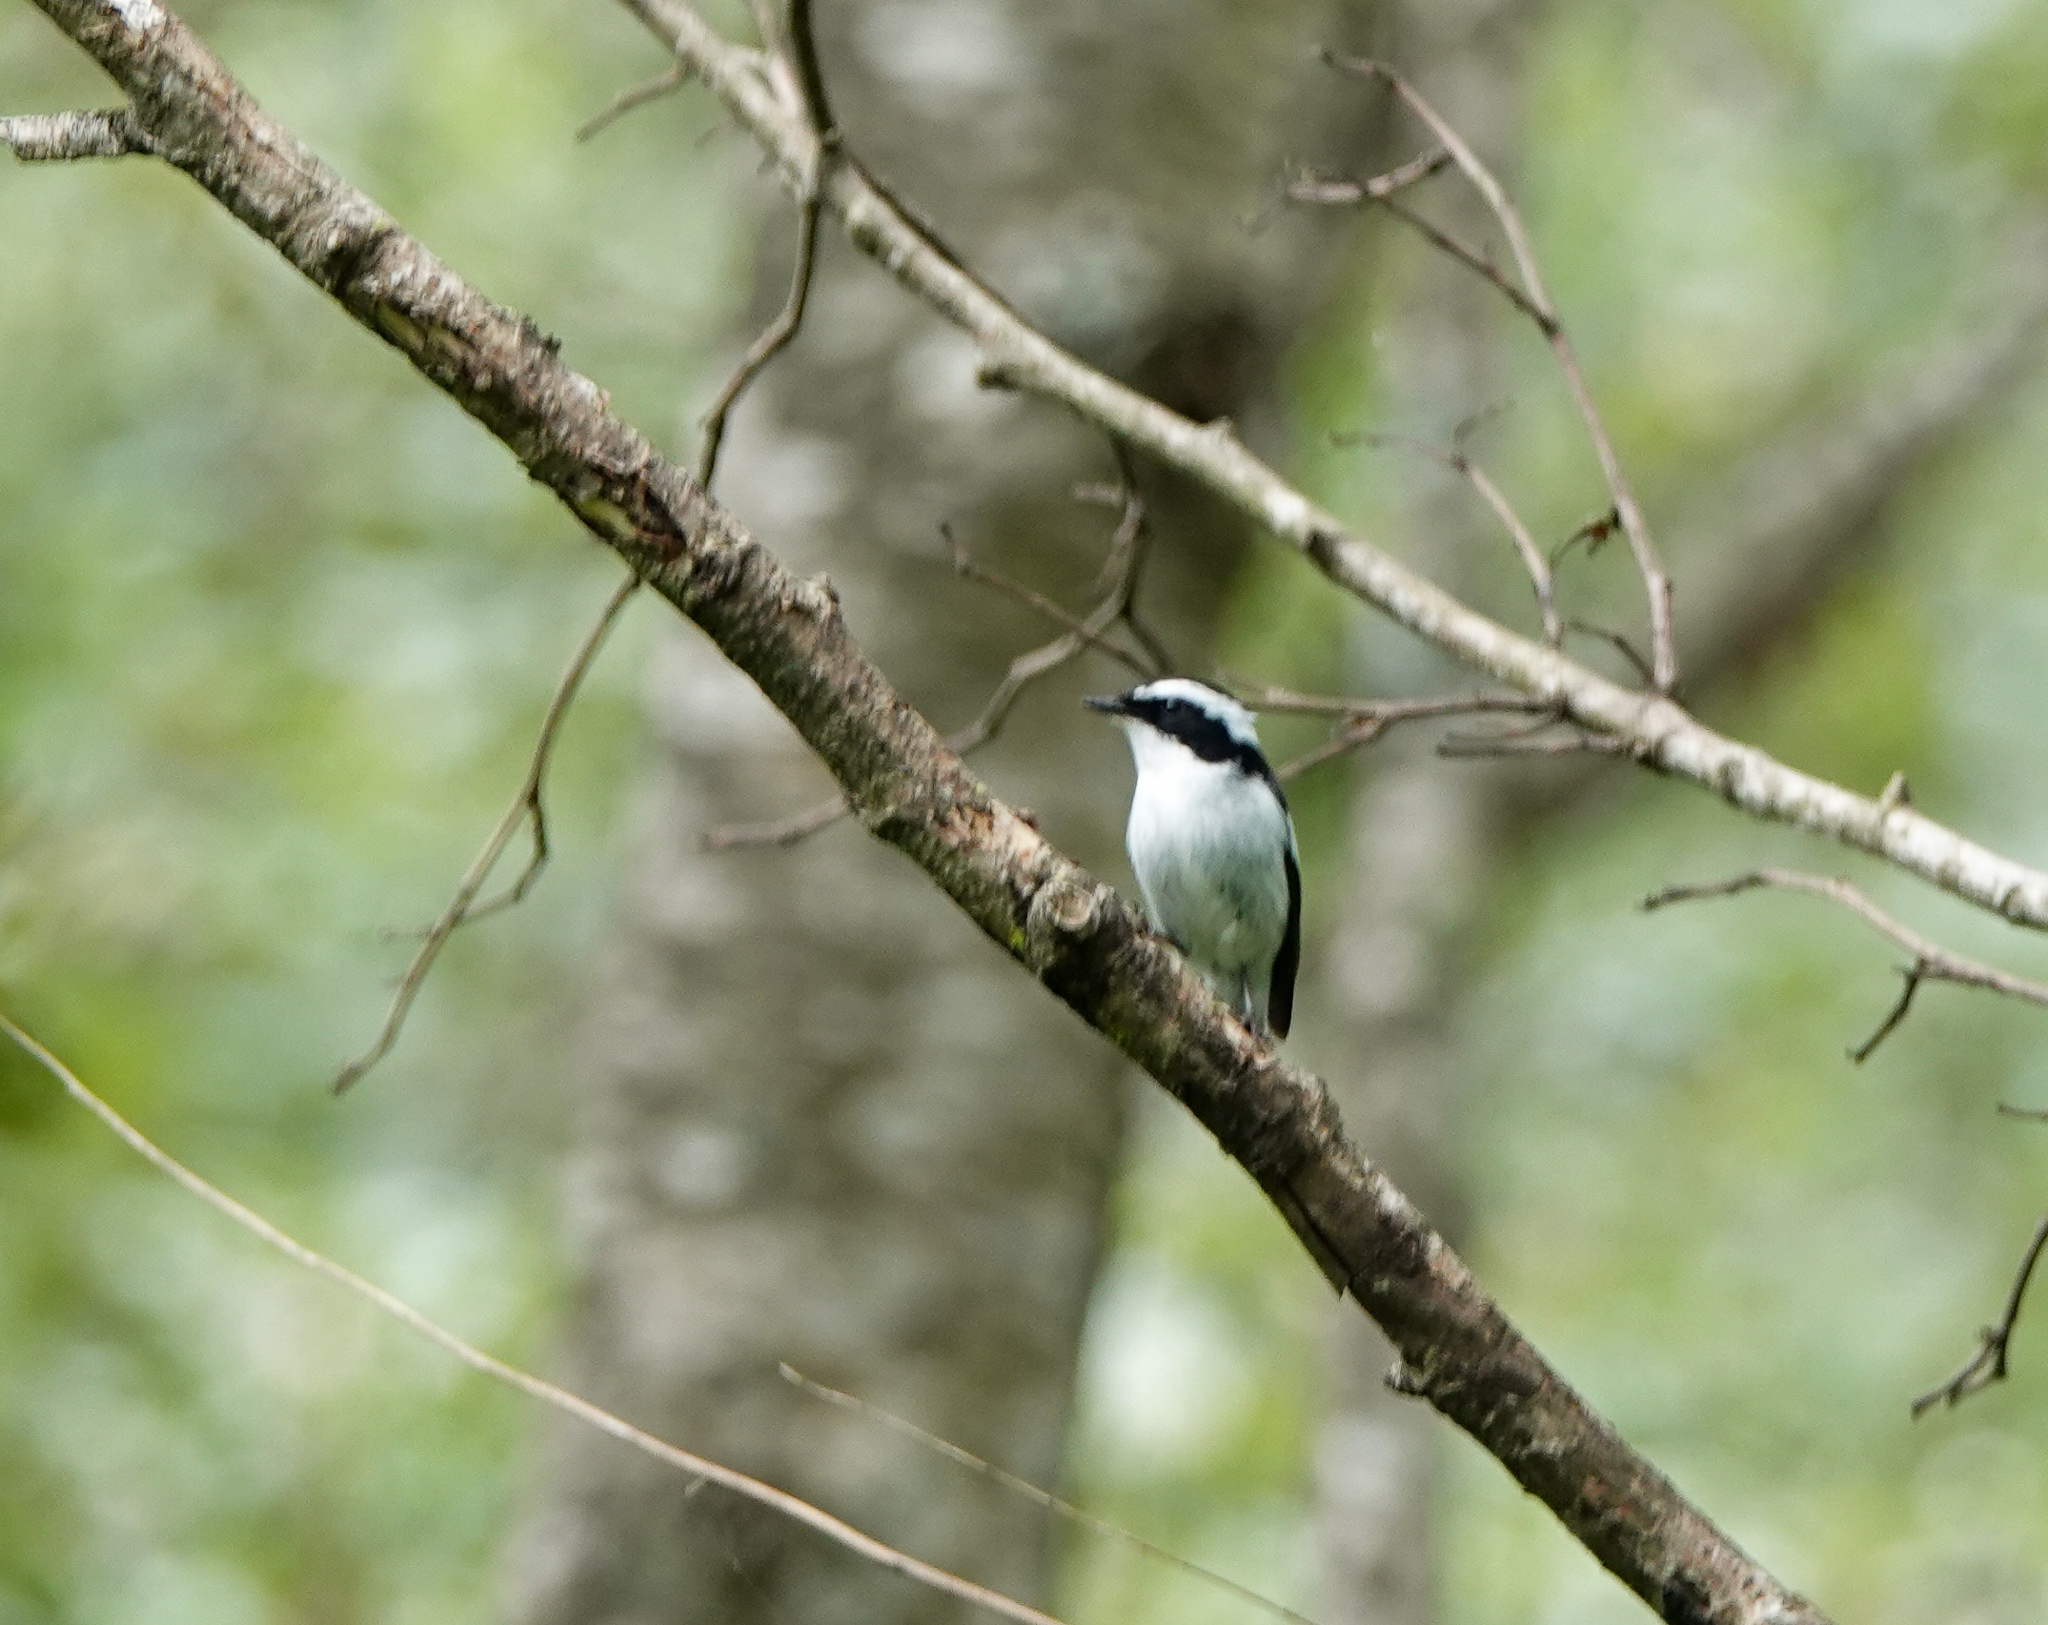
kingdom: Animalia
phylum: Chordata
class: Aves
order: Passeriformes
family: Muscicapidae
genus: Ficedula
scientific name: Ficedula westermanni
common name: Little pied flycatcher
